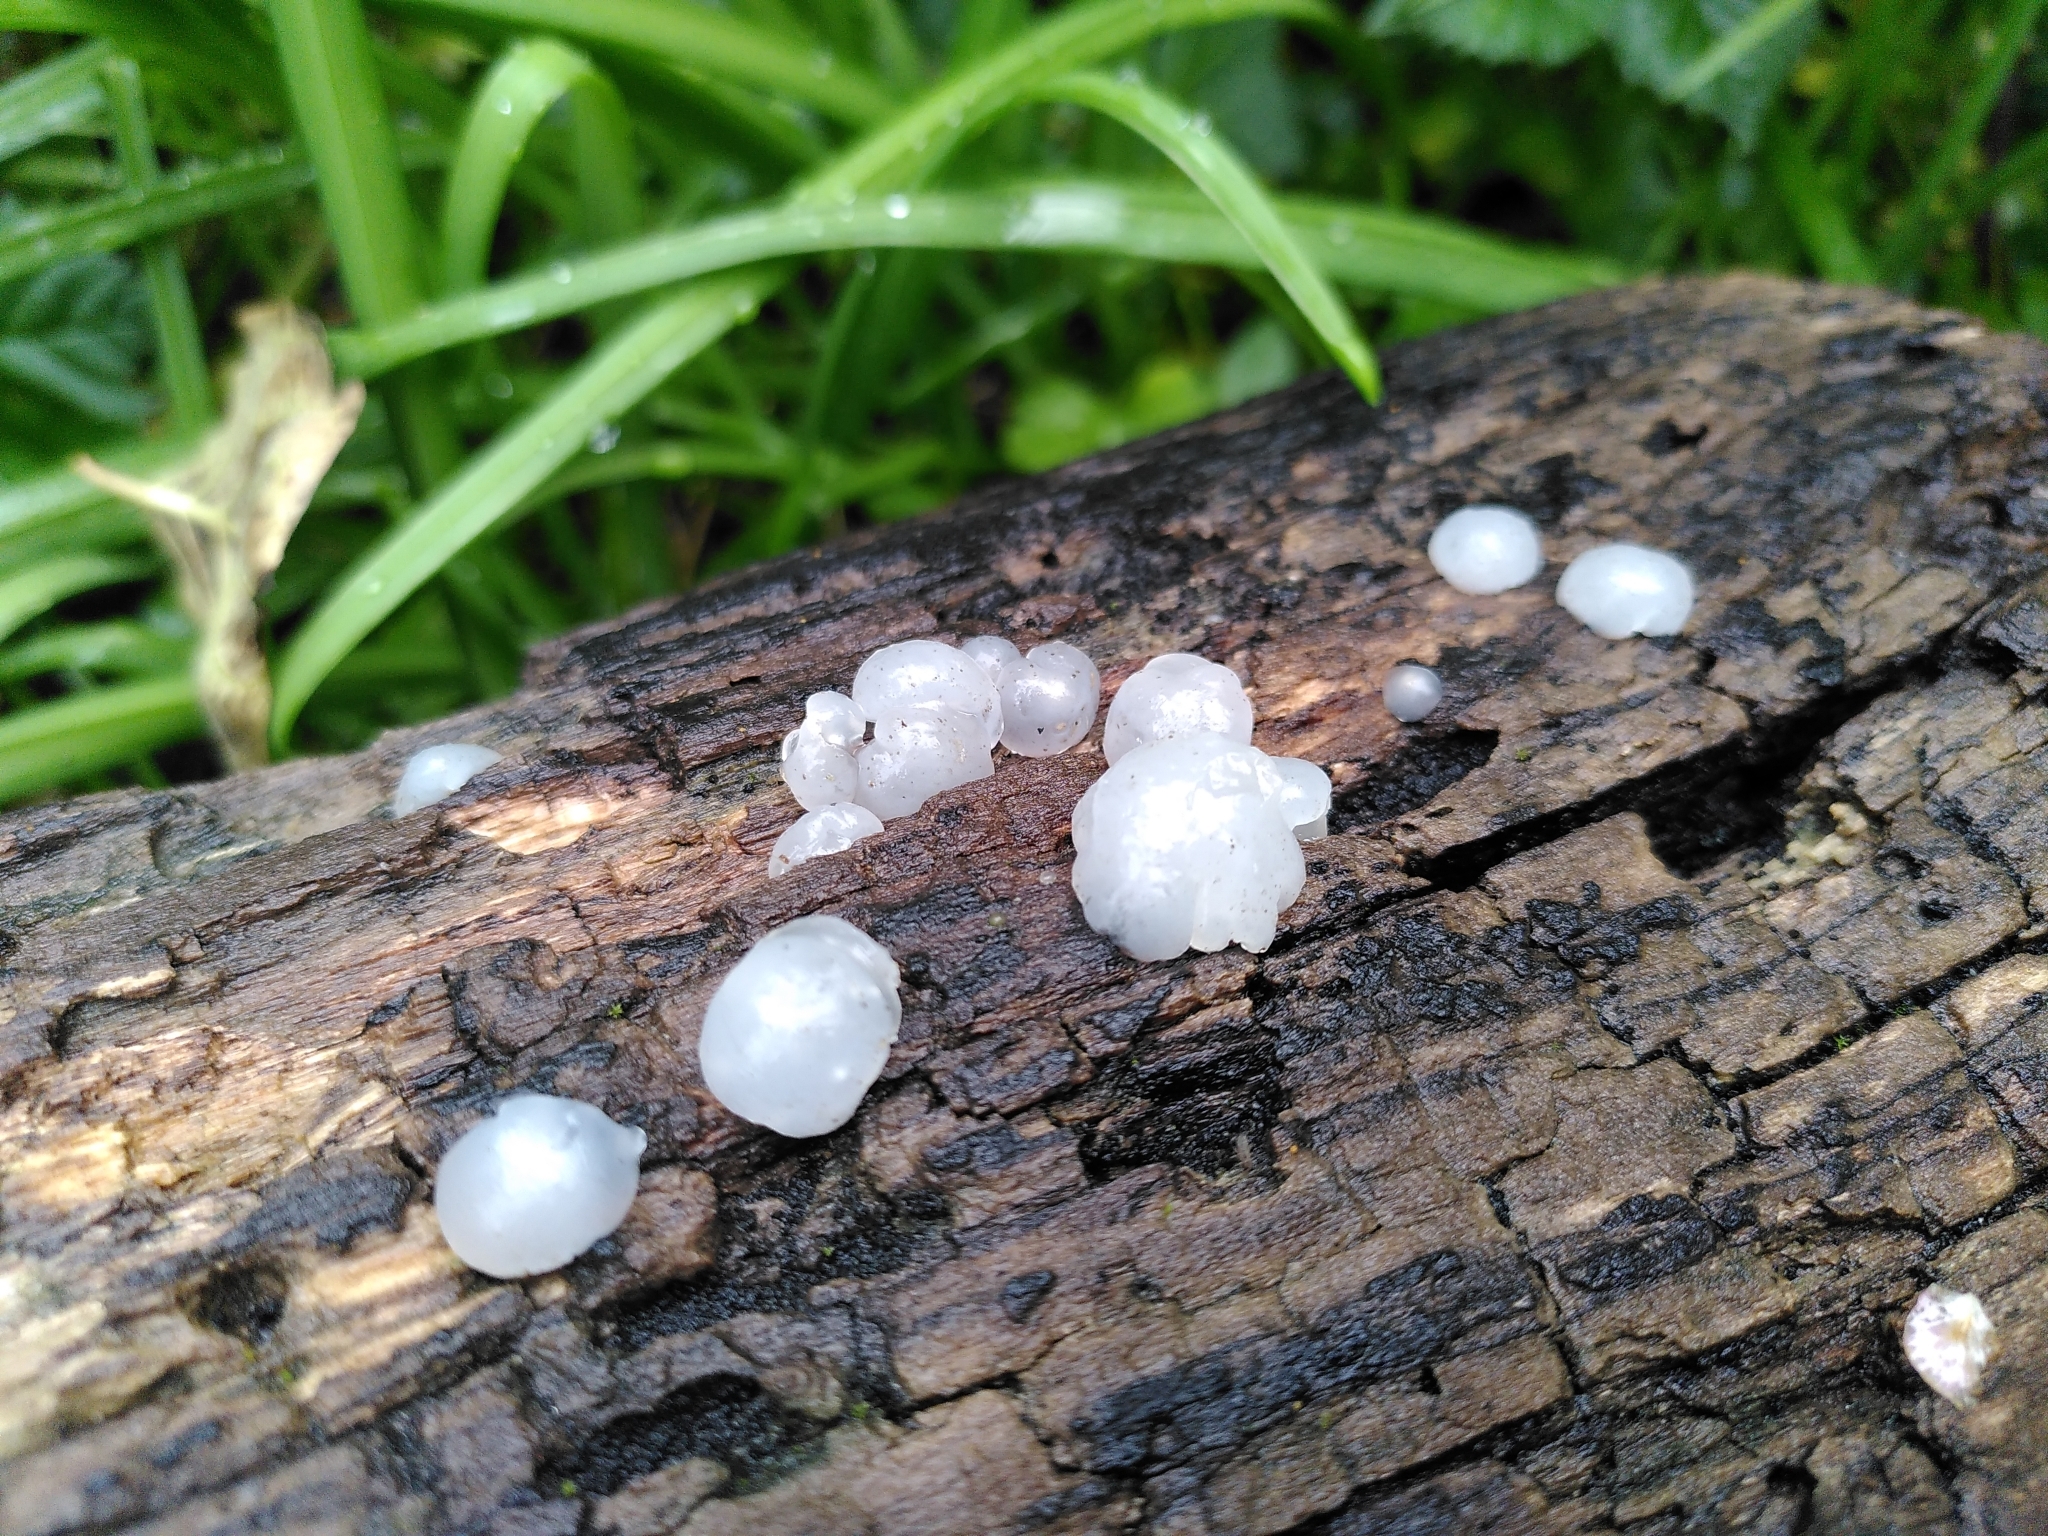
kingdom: Fungi
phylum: Basidiomycota
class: Agaricomycetes
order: Auriculariales
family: Hyaloriaceae
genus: Myxarium
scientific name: Myxarium nucleatum
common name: Crystal brain fungus
